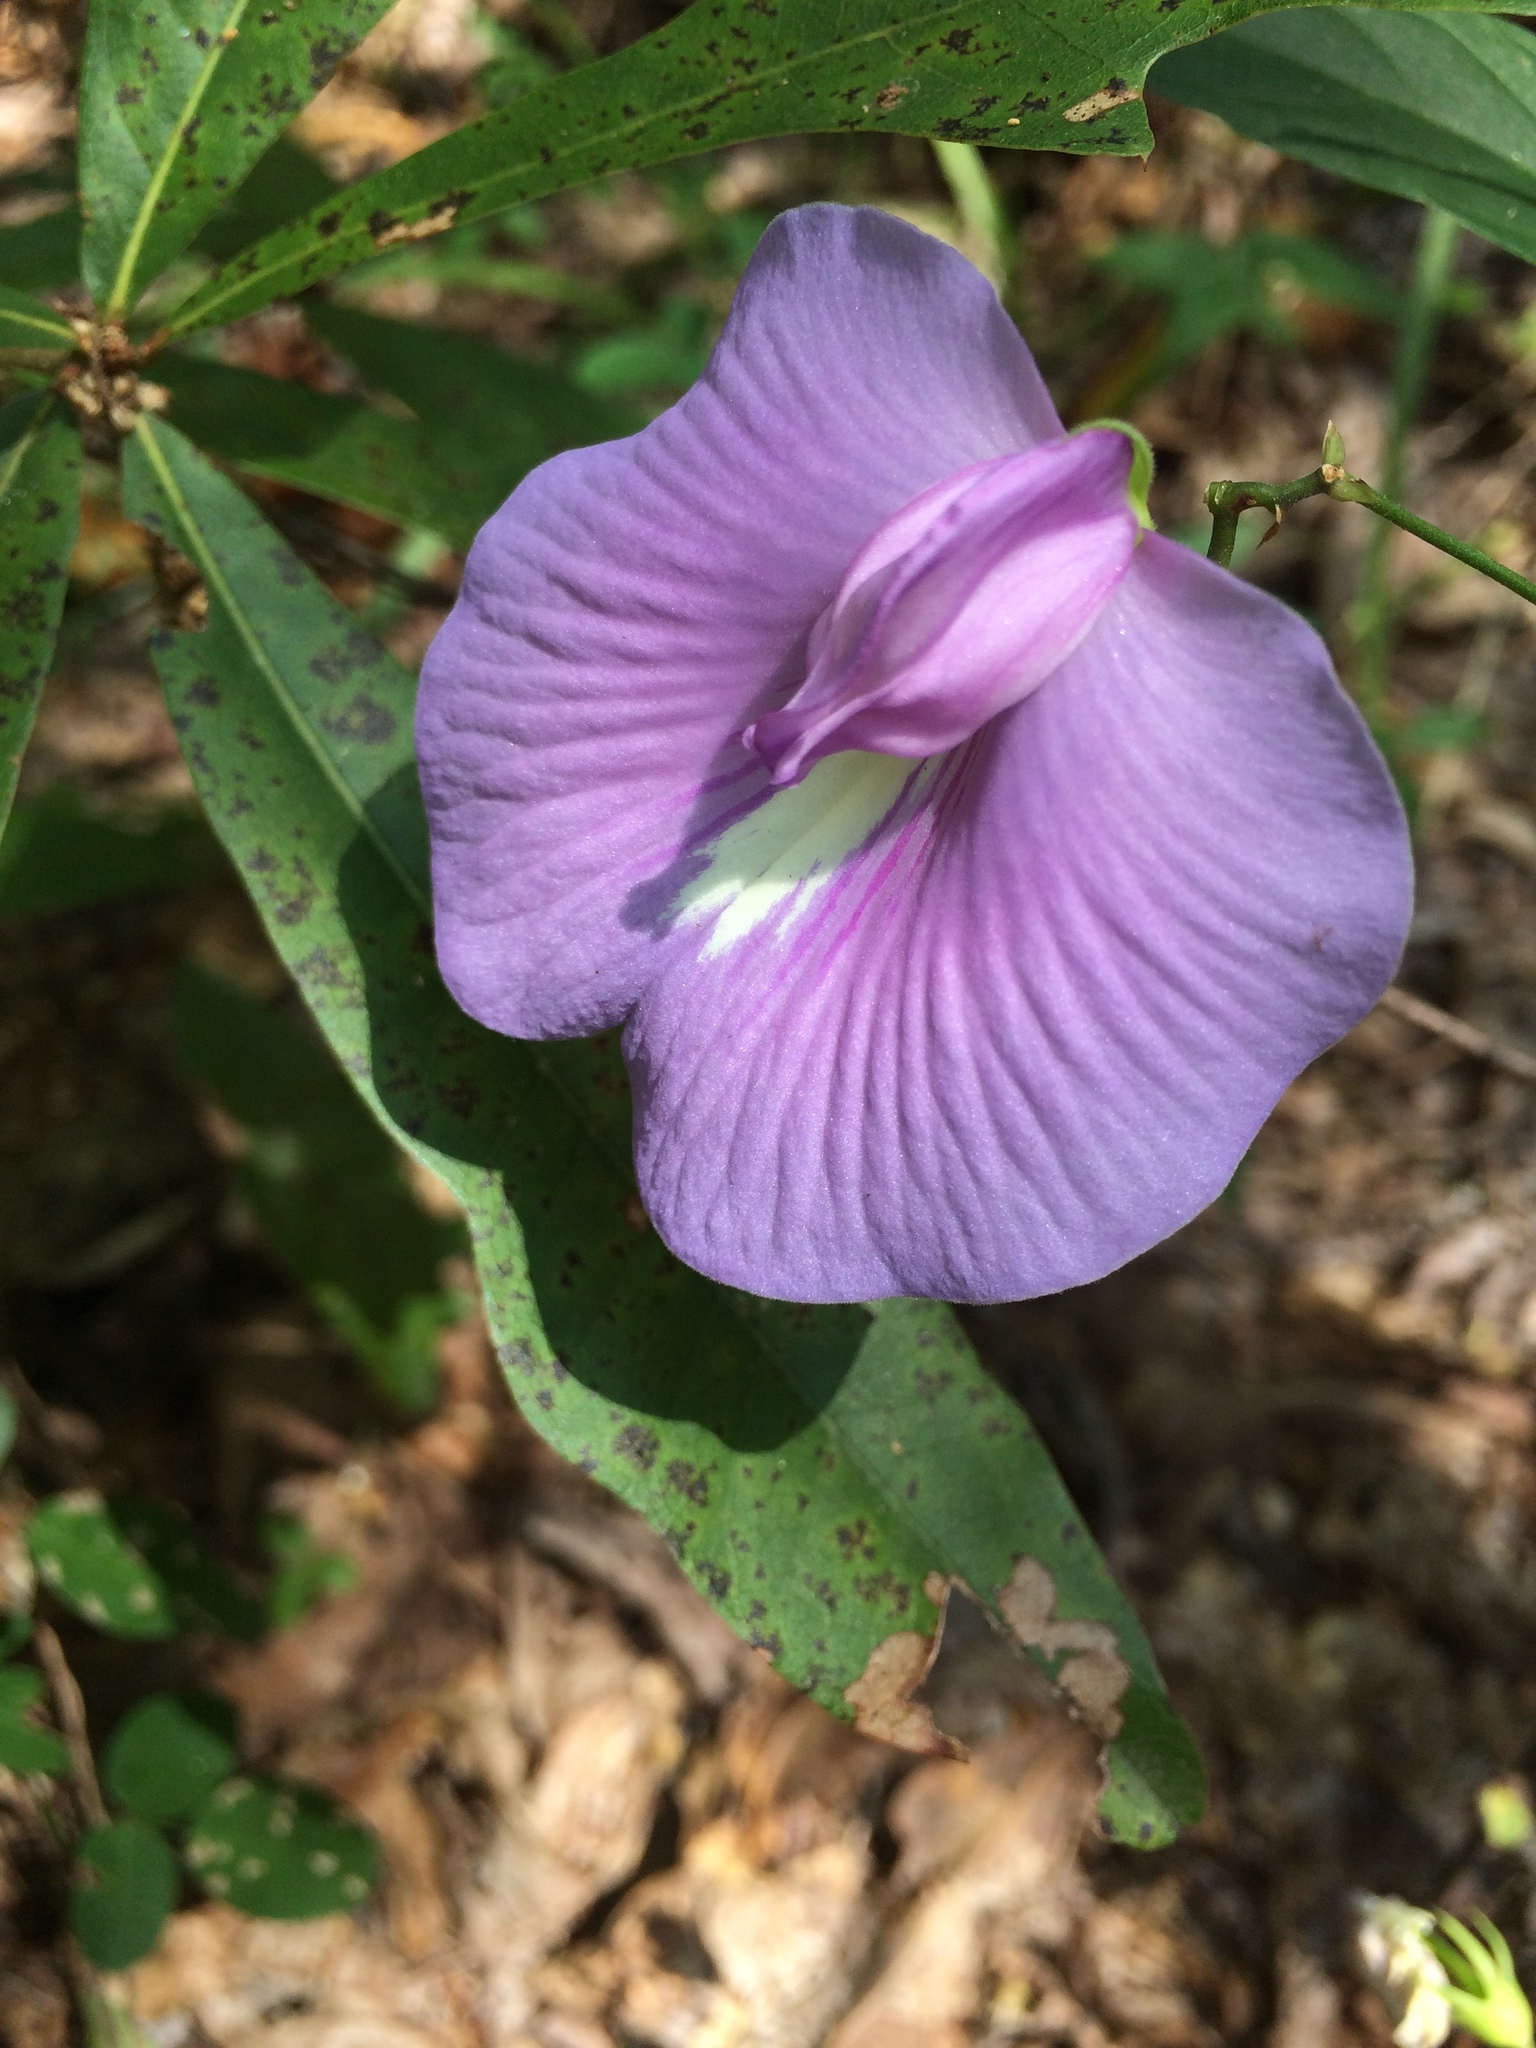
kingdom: Plantae
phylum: Tracheophyta
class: Magnoliopsida
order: Fabales
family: Fabaceae
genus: Centrosema
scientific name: Centrosema virginianum
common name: Butterfly-pea
